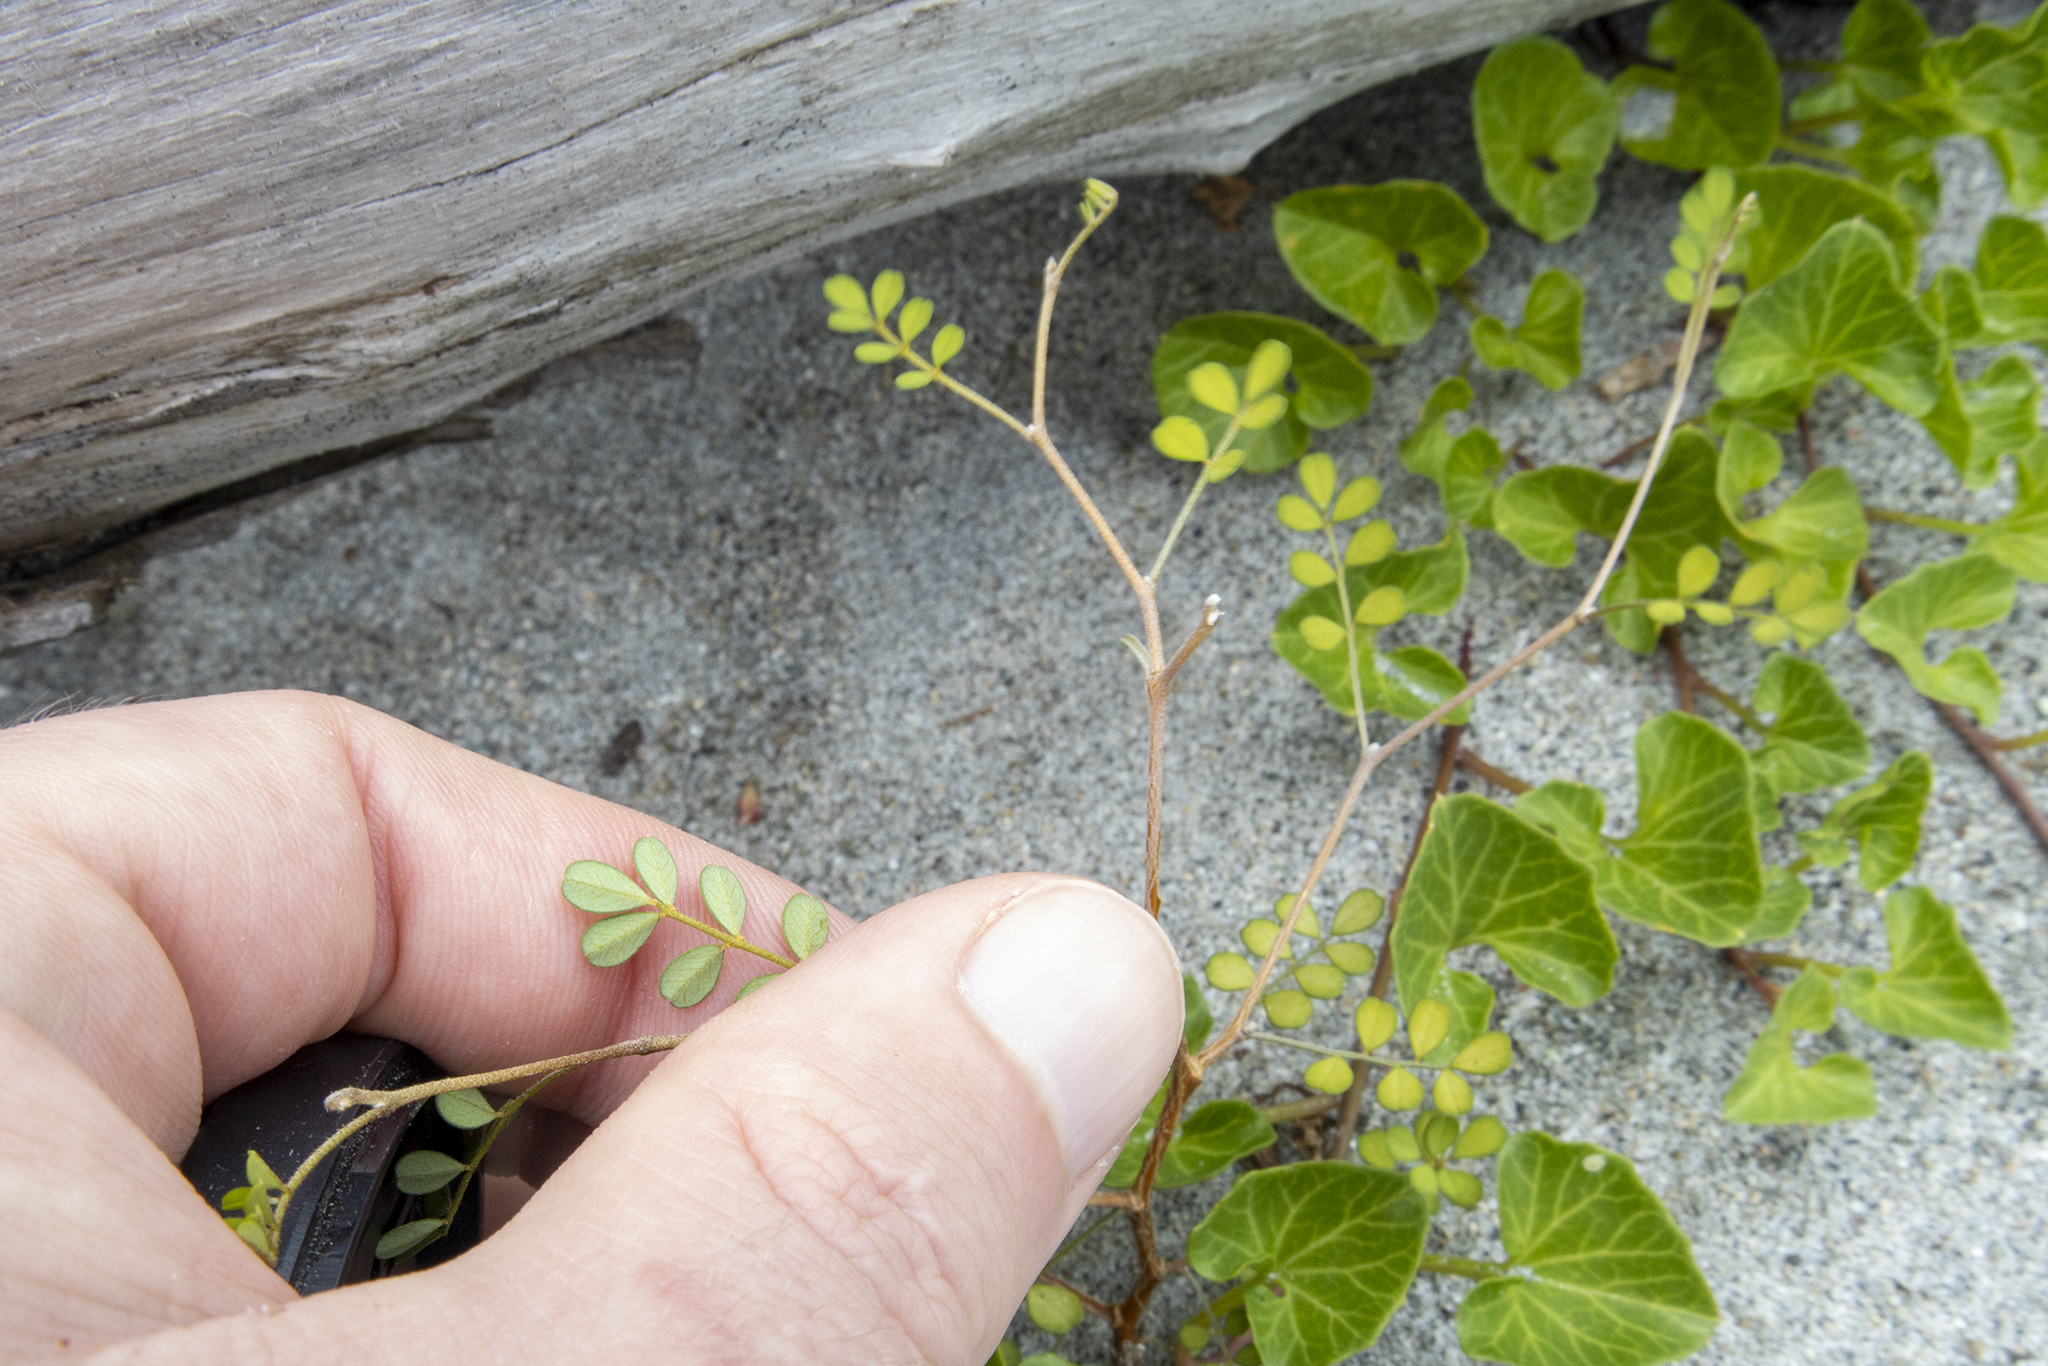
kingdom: Plantae
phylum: Tracheophyta
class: Magnoliopsida
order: Fabales
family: Fabaceae
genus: Sophora
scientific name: Sophora microphylla
